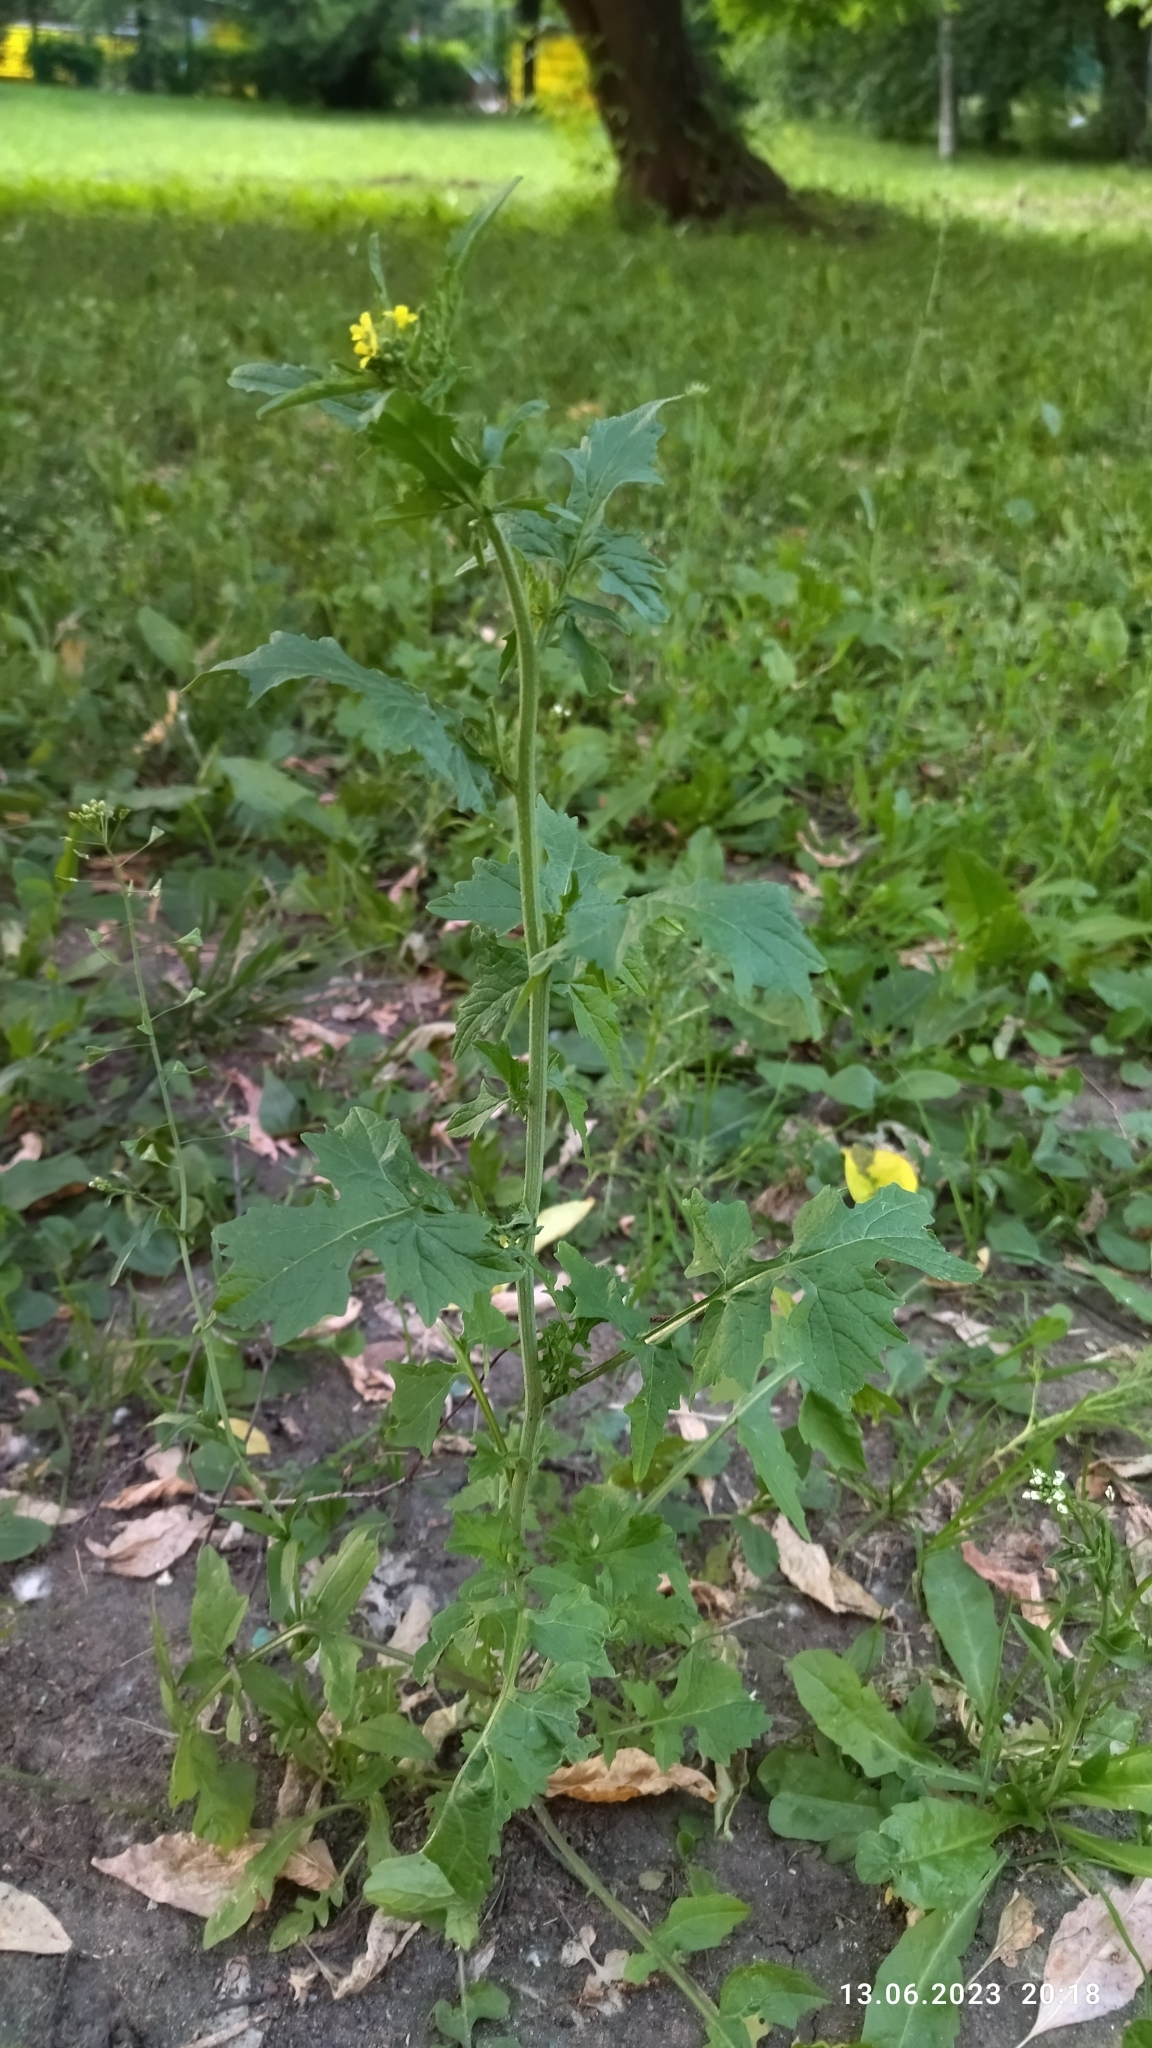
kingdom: Plantae
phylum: Tracheophyta
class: Magnoliopsida
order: Brassicales
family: Brassicaceae
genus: Sisymbrium
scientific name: Sisymbrium officinale
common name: Hedge mustard
